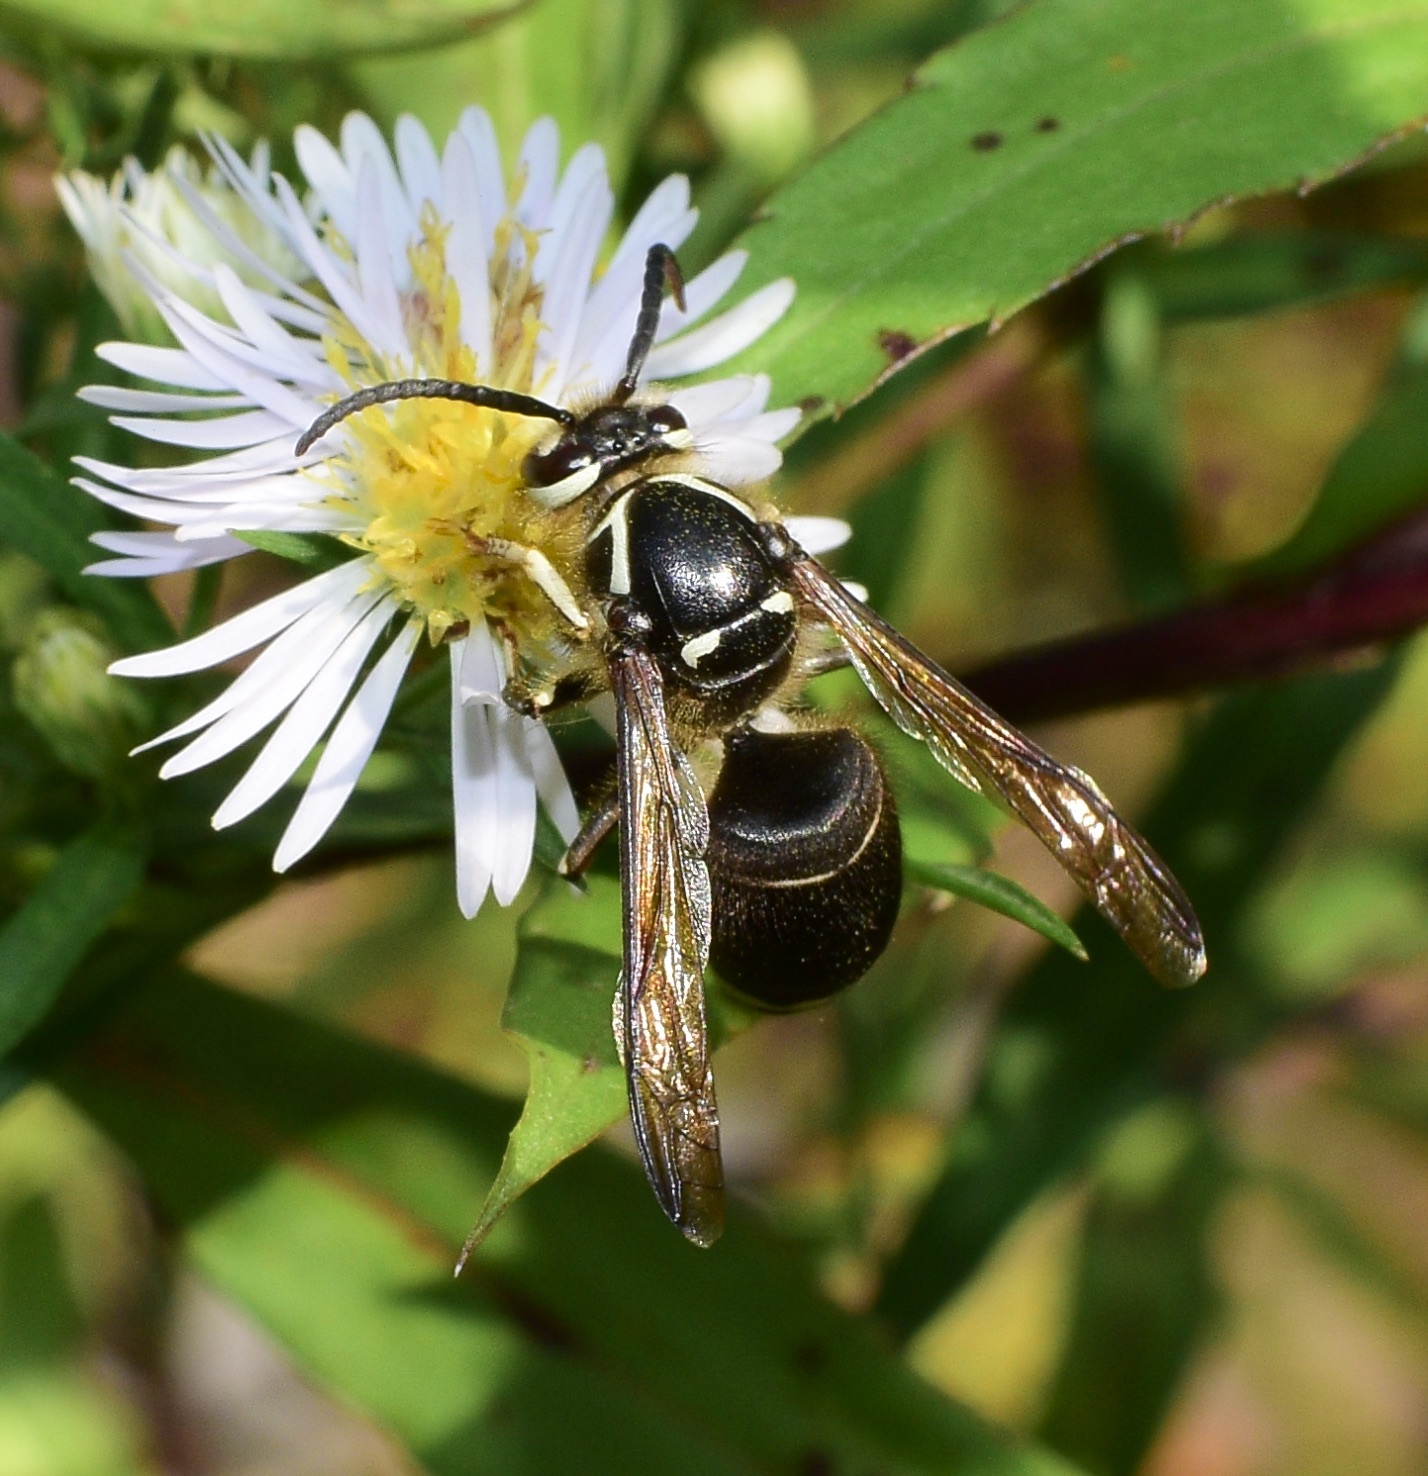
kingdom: Animalia
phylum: Arthropoda
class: Insecta
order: Hymenoptera
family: Vespidae
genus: Dolichovespula
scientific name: Dolichovespula maculata
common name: Bald-faced hornet
